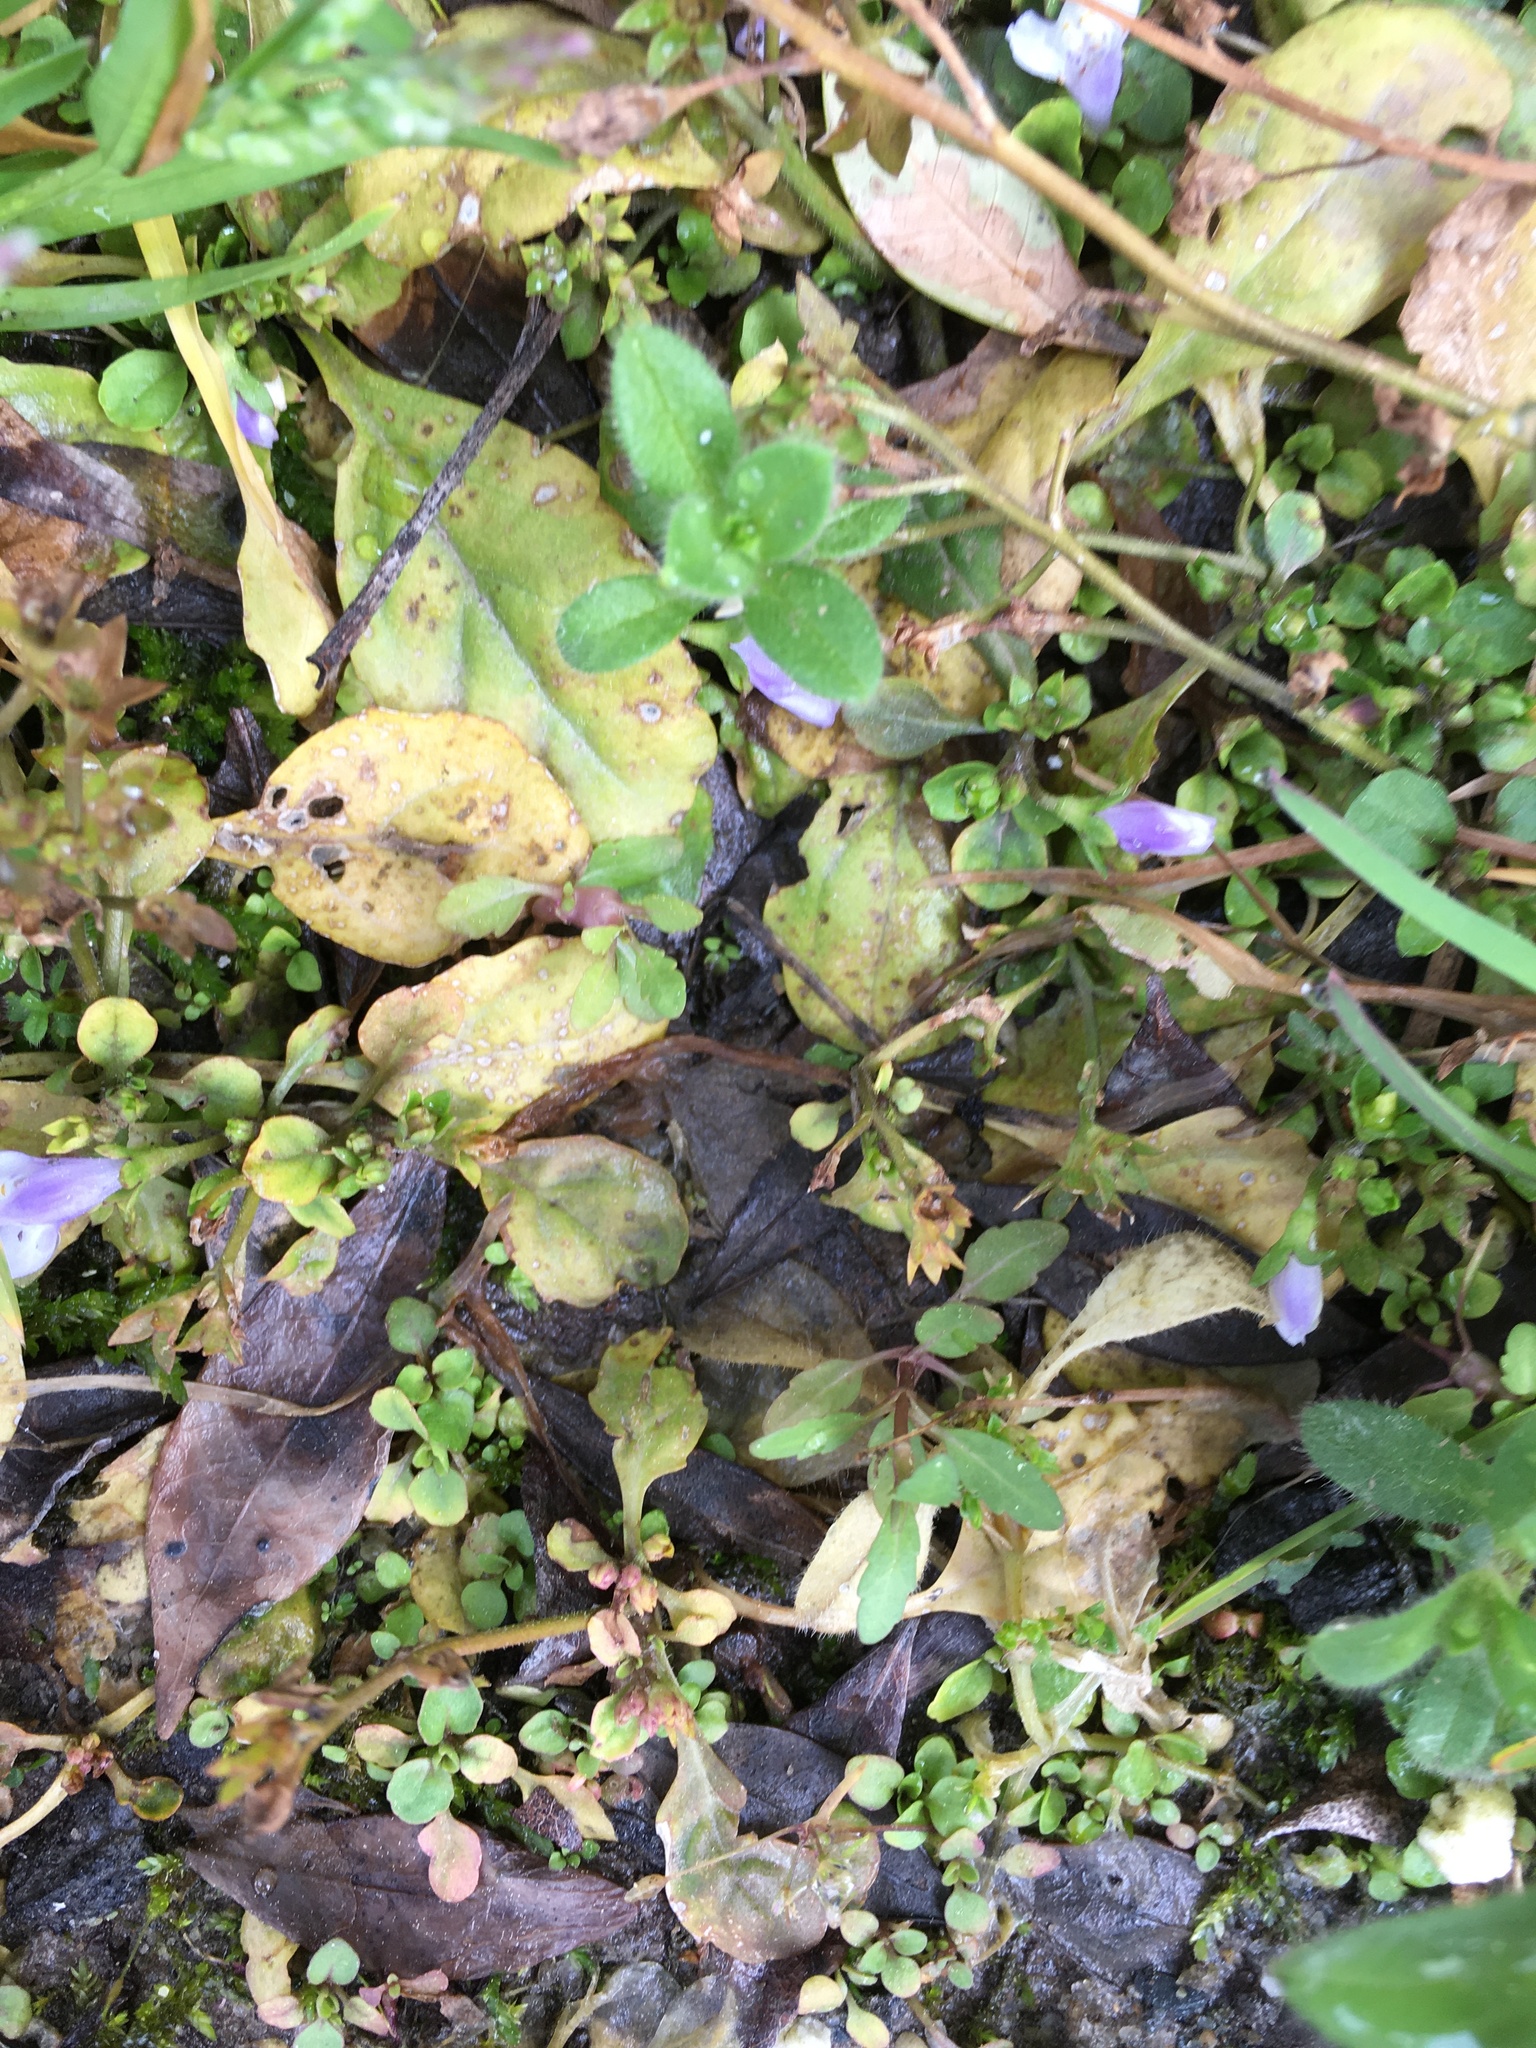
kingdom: Plantae
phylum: Tracheophyta
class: Magnoliopsida
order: Lamiales
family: Mazaceae
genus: Mazus
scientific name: Mazus pumilus
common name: Japanese mazus
